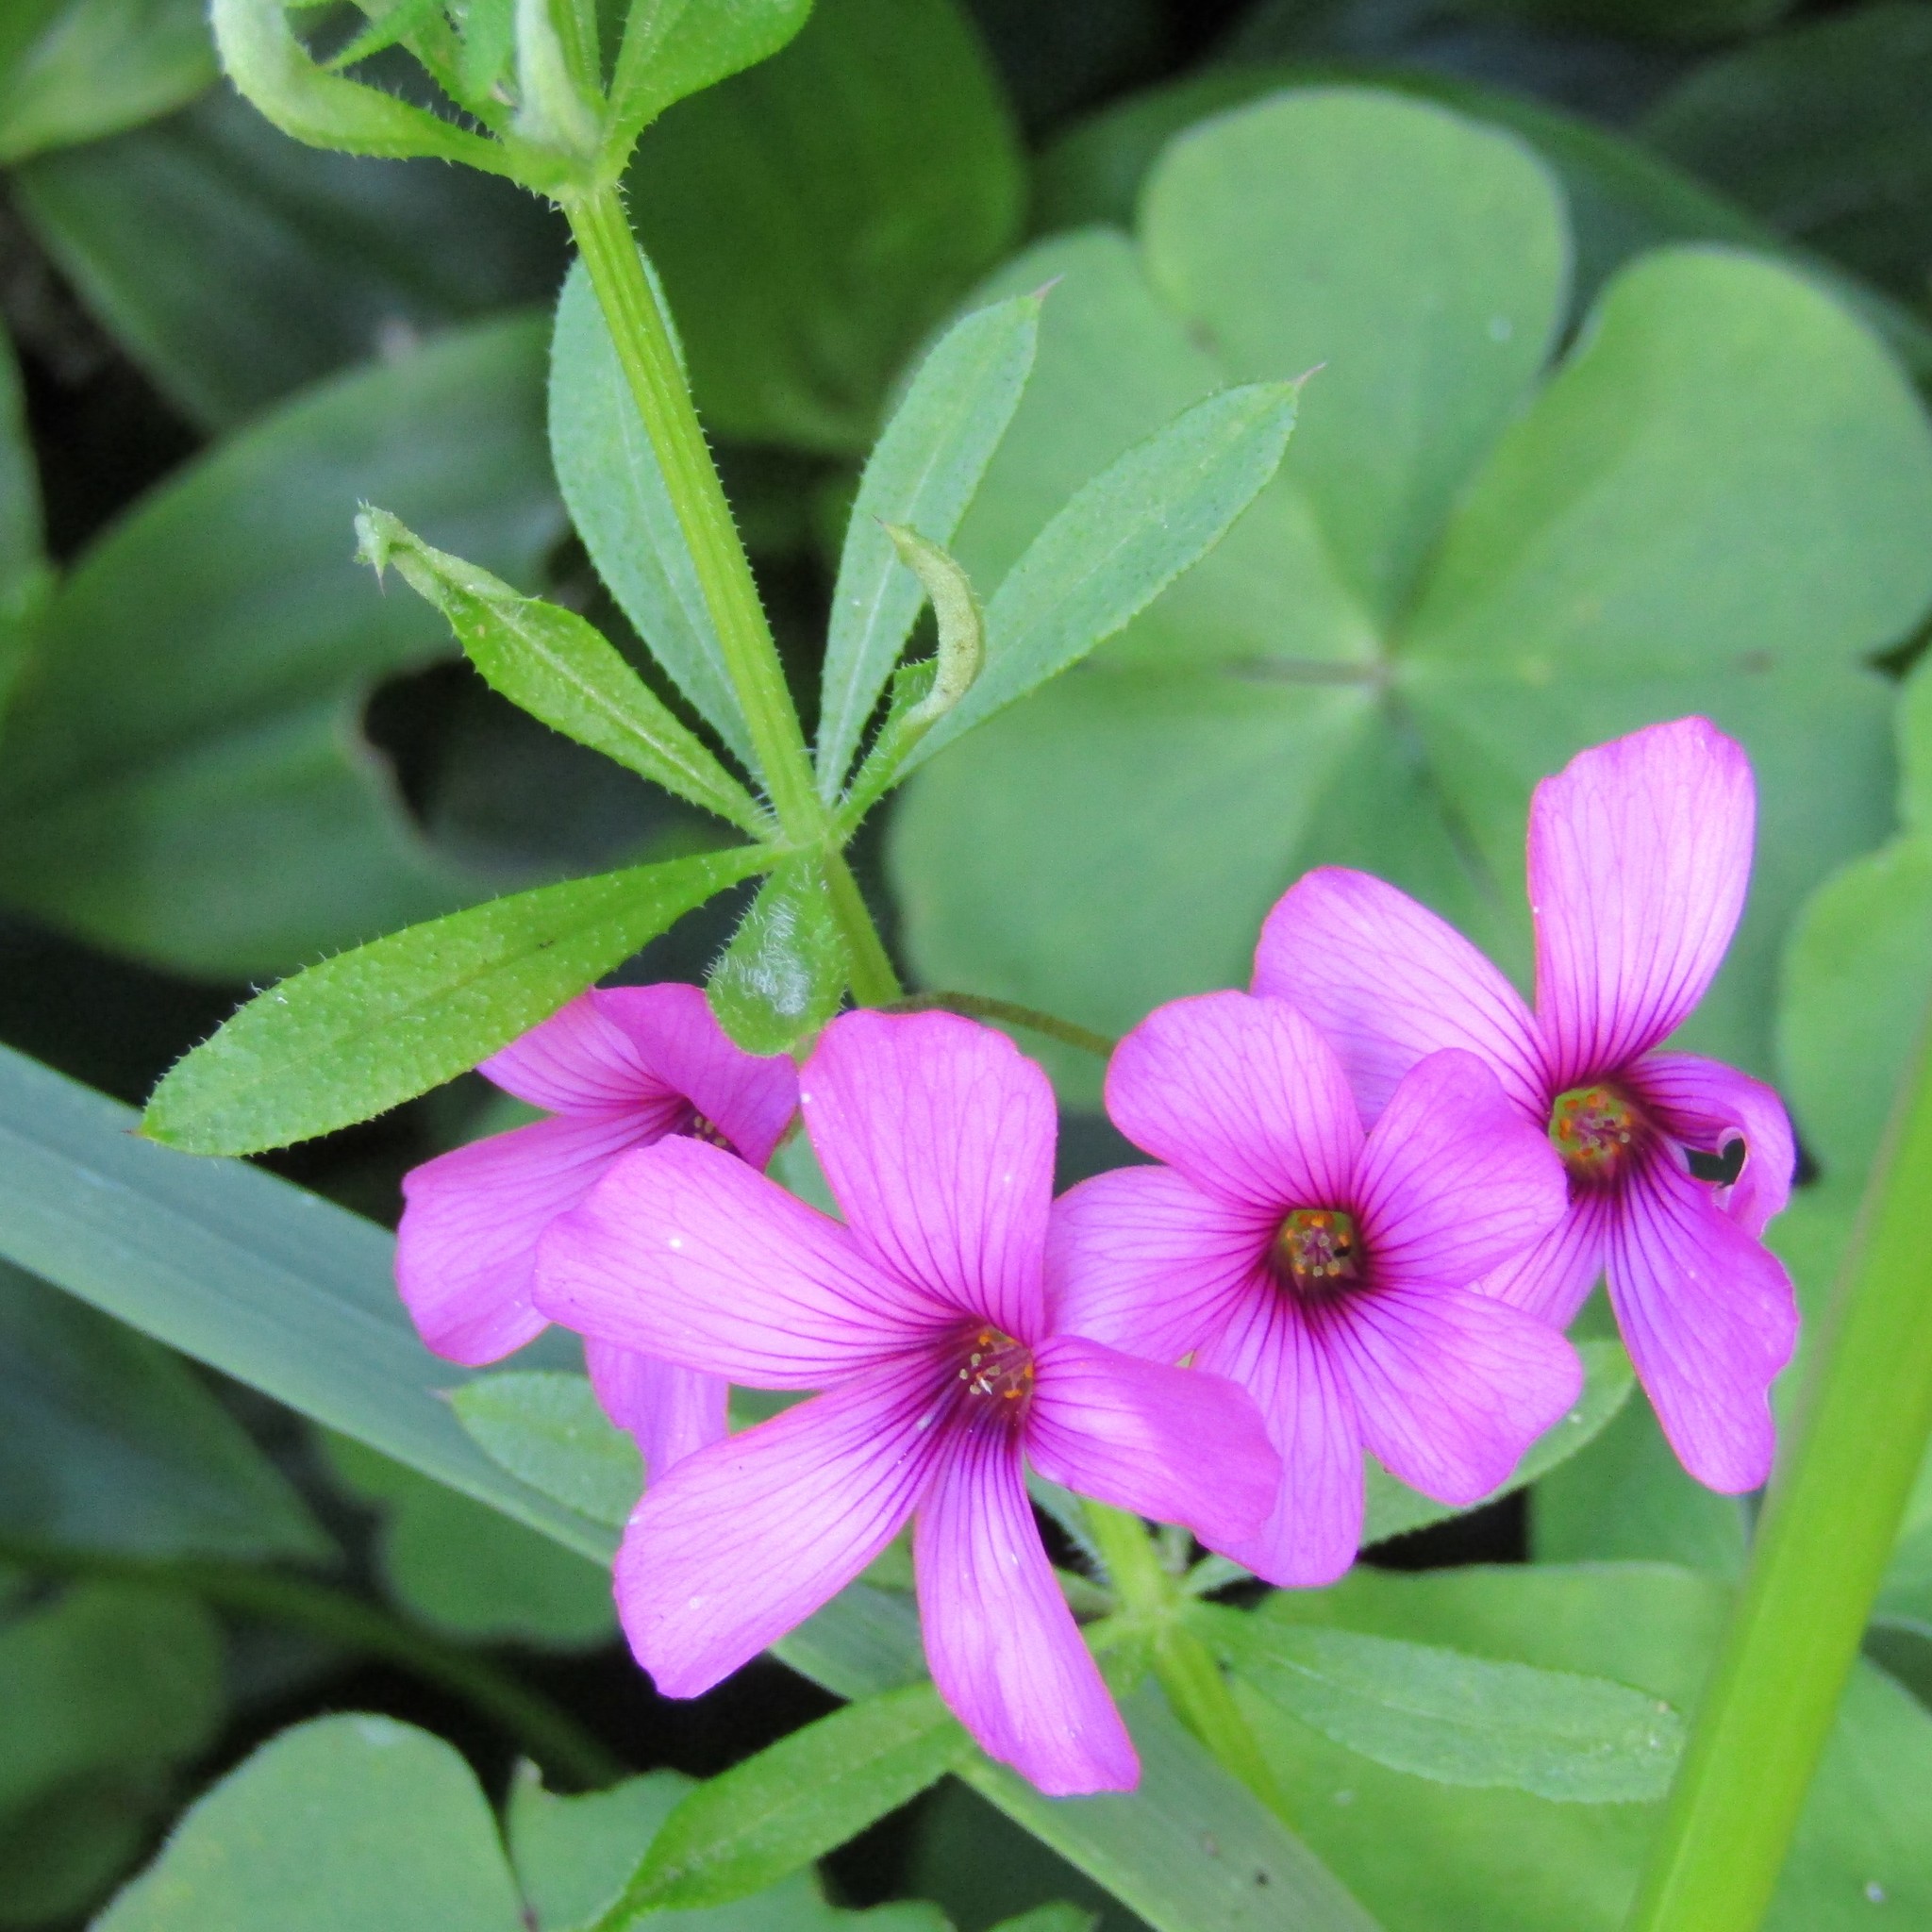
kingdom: Plantae
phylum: Tracheophyta
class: Magnoliopsida
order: Oxalidales
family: Oxalidaceae
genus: Oxalis
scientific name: Oxalis articulata
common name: Pink-sorrel
